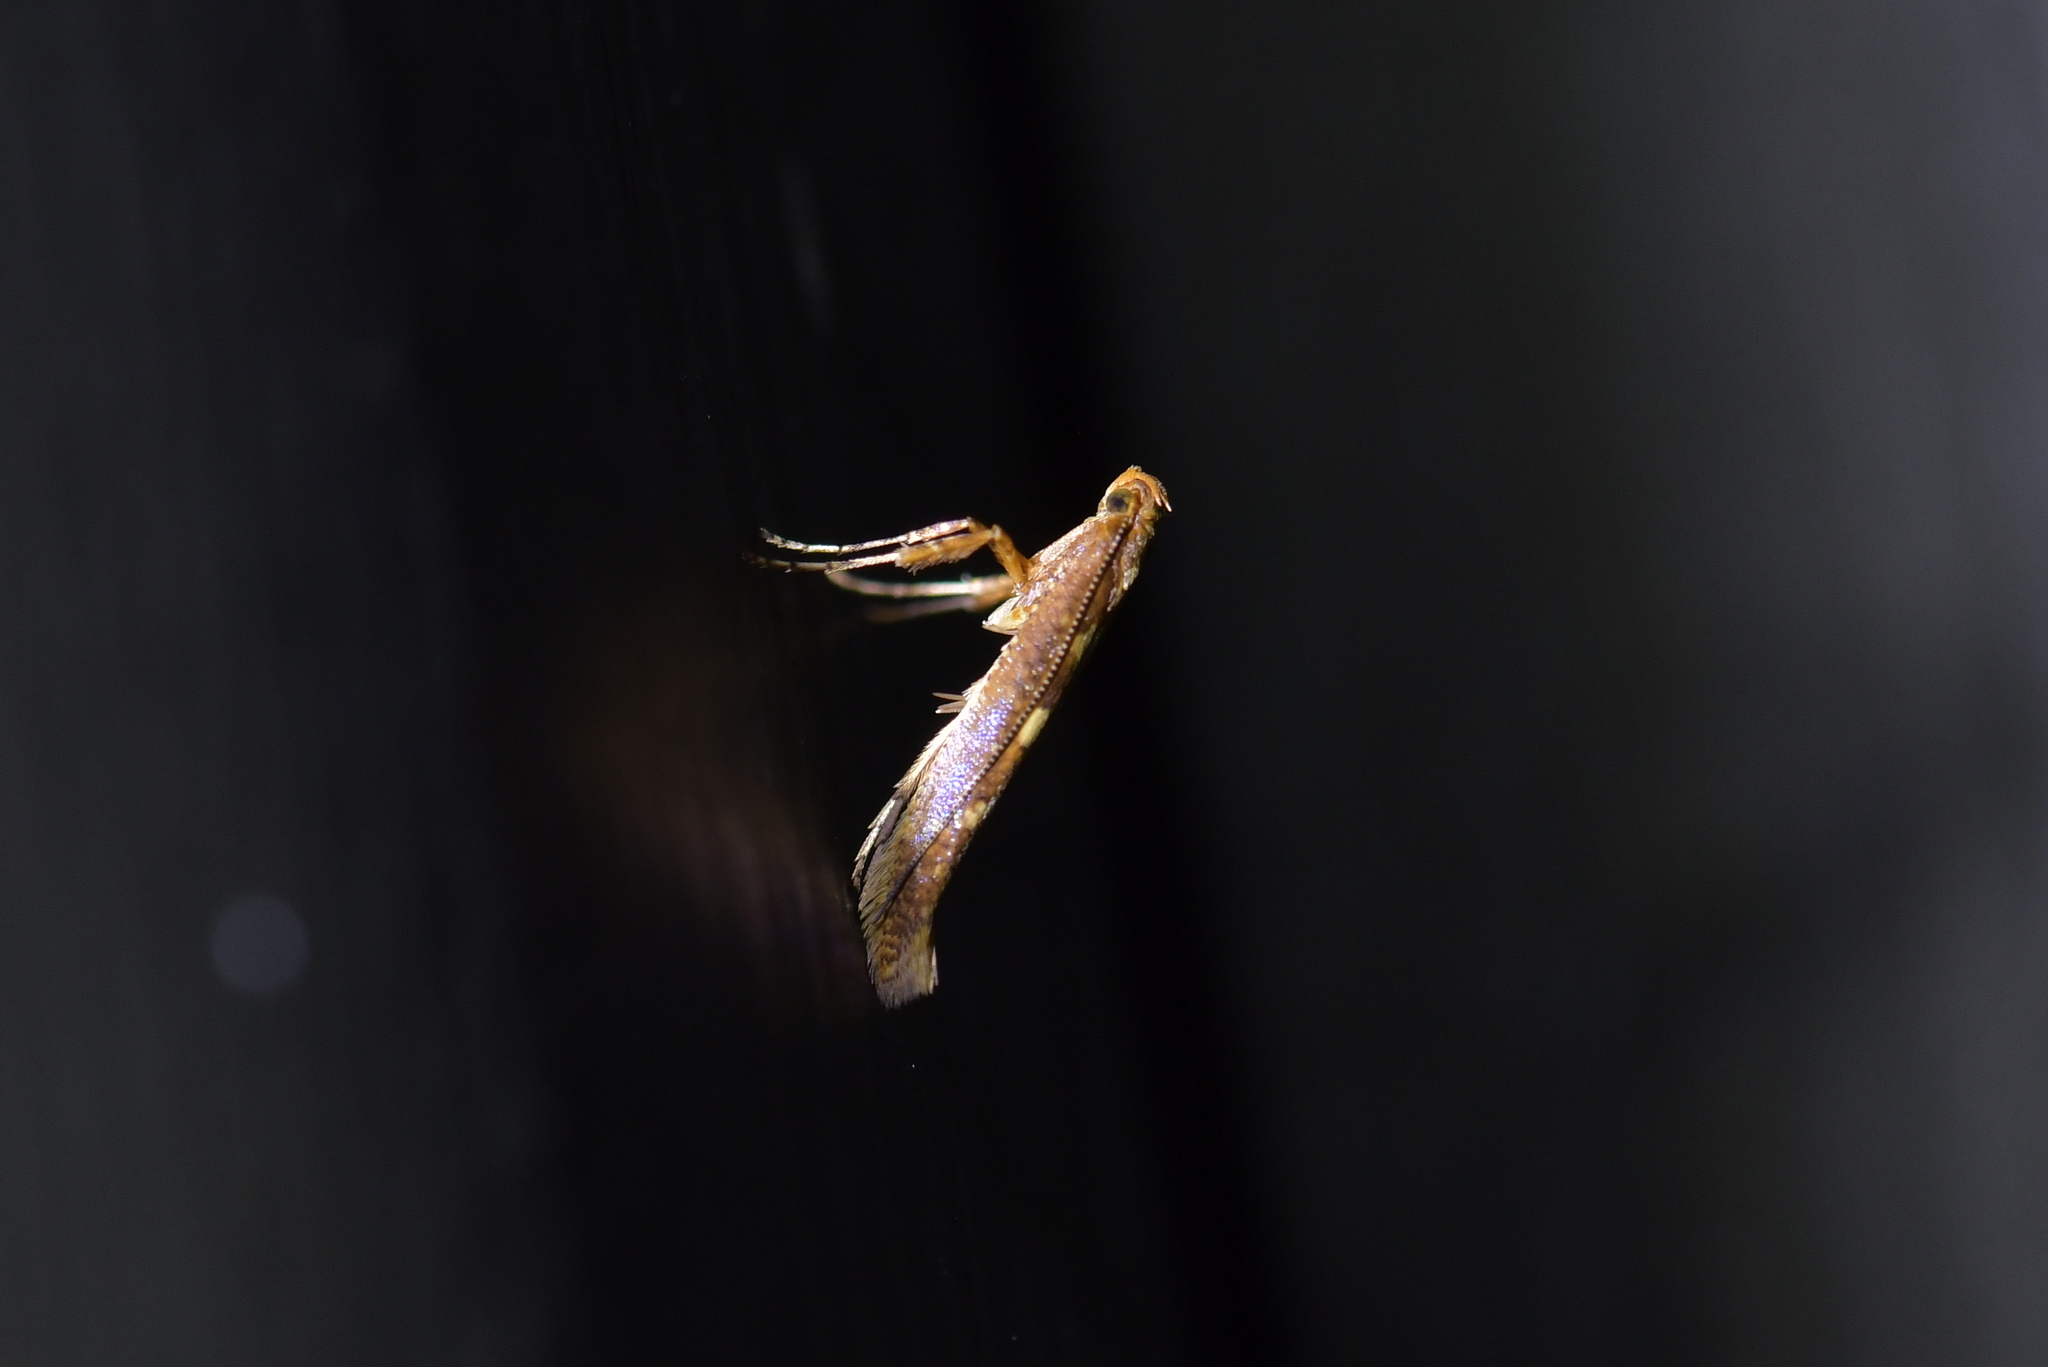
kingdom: Animalia
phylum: Arthropoda
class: Insecta
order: Lepidoptera
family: Gracillariidae
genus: Caloptilia
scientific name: Caloptilia selenitis
